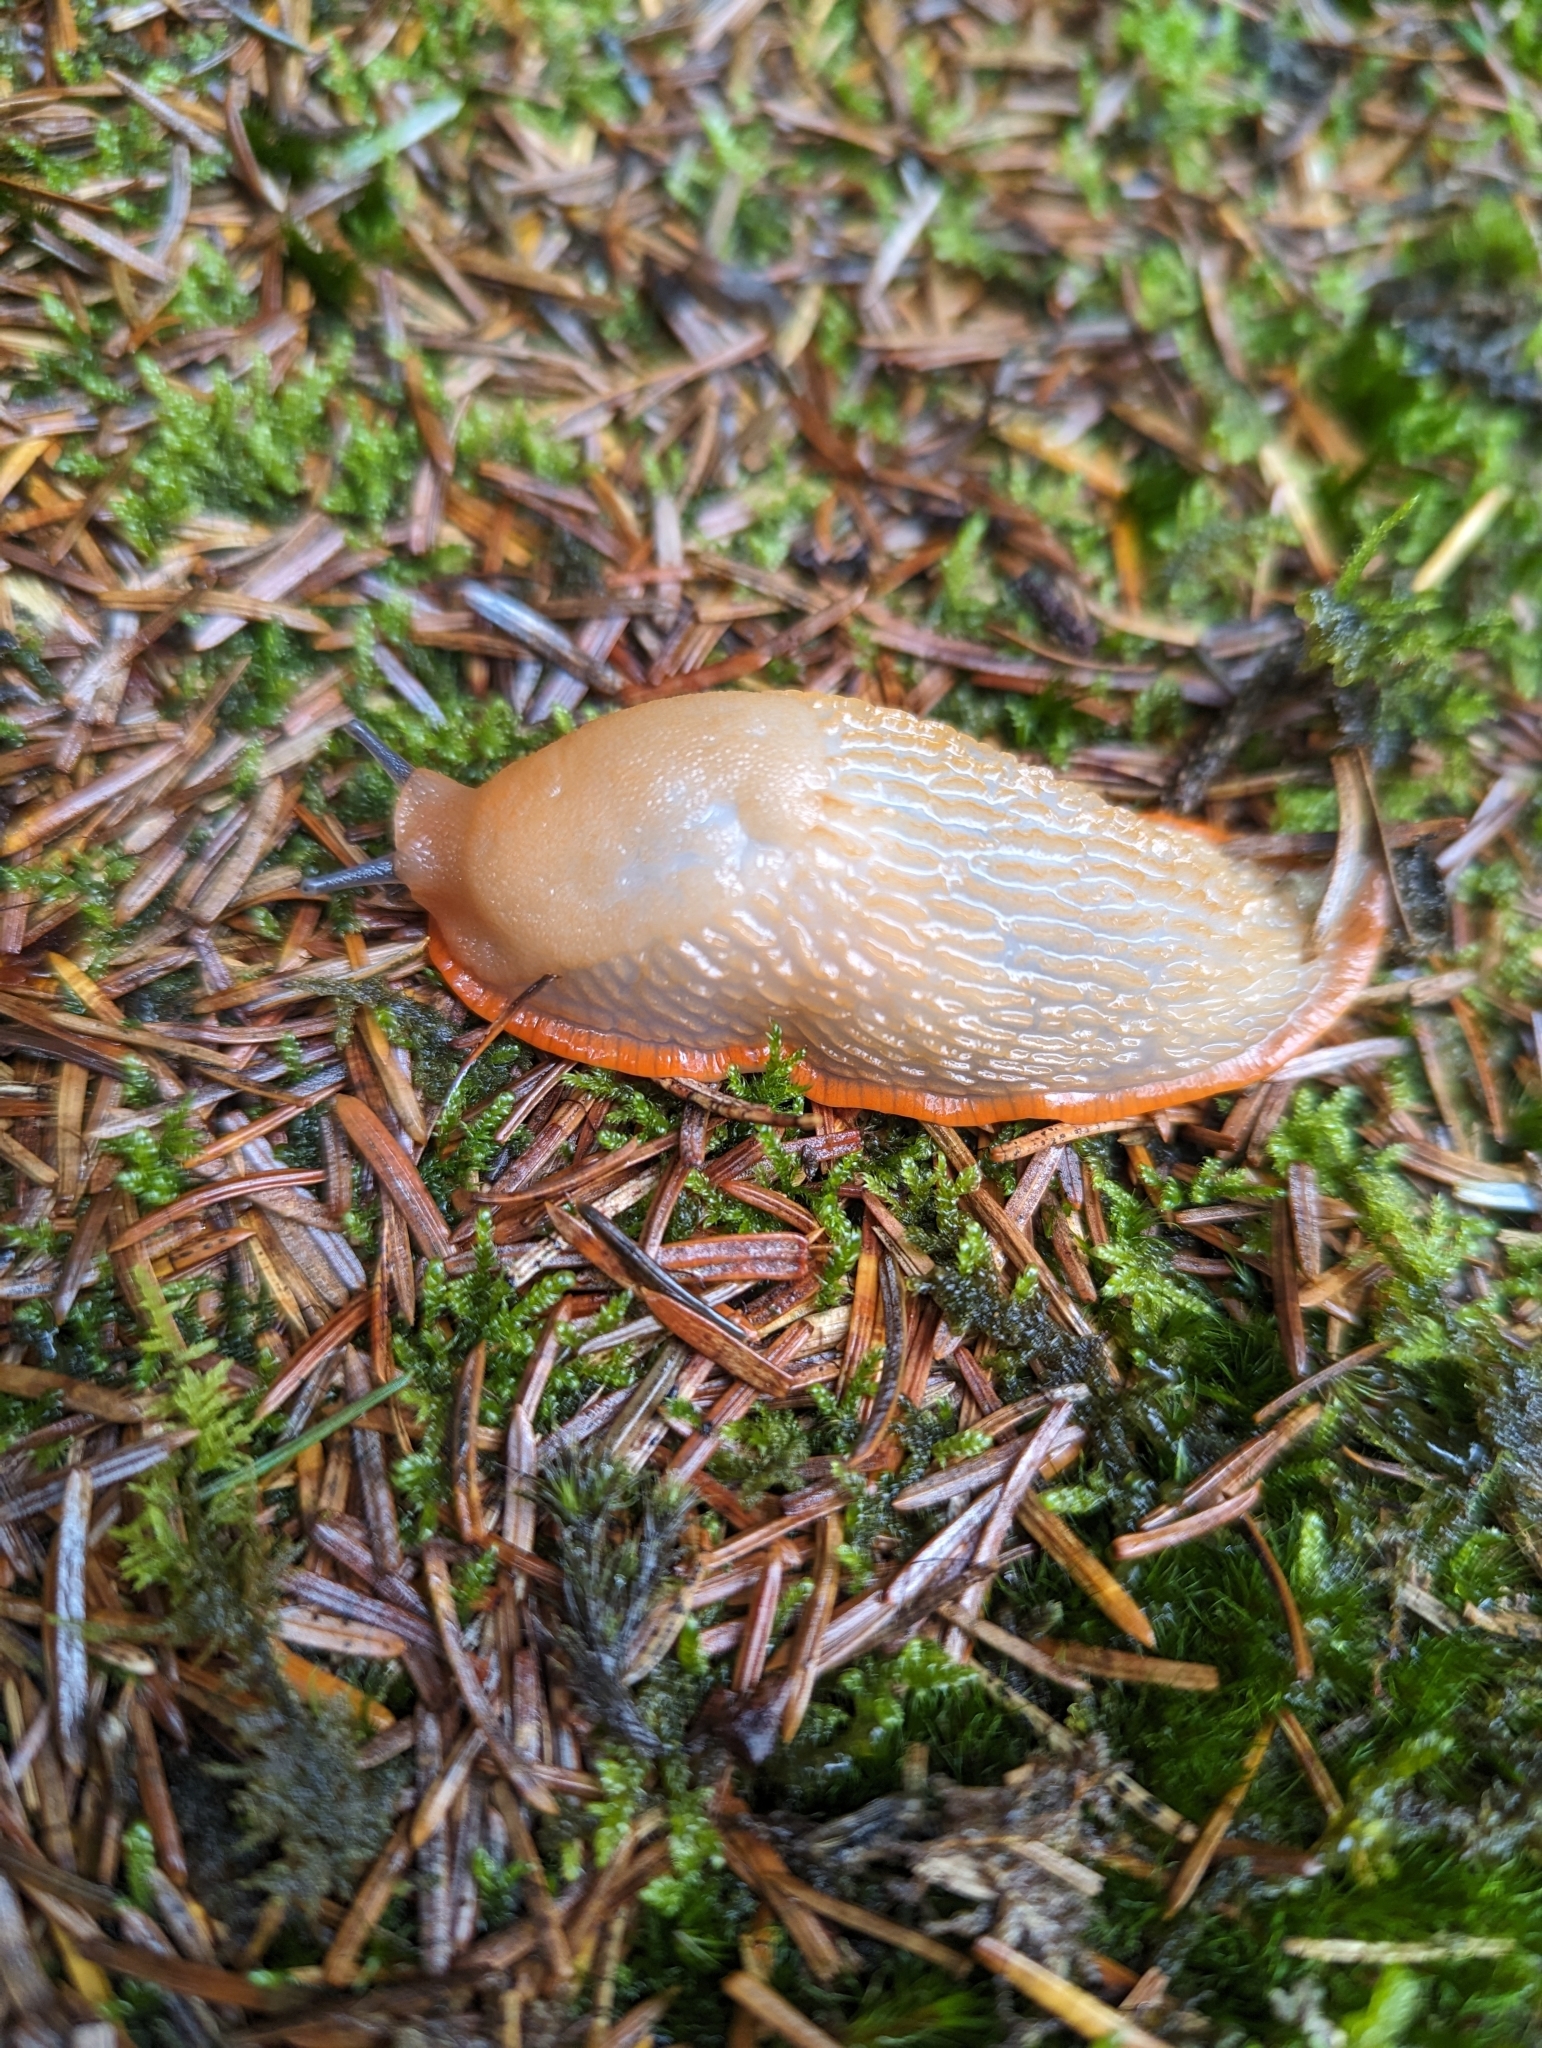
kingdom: Animalia
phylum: Mollusca
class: Gastropoda
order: Stylommatophora
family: Arionidae
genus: Arion
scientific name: Arion rufus
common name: Chocolate arion
